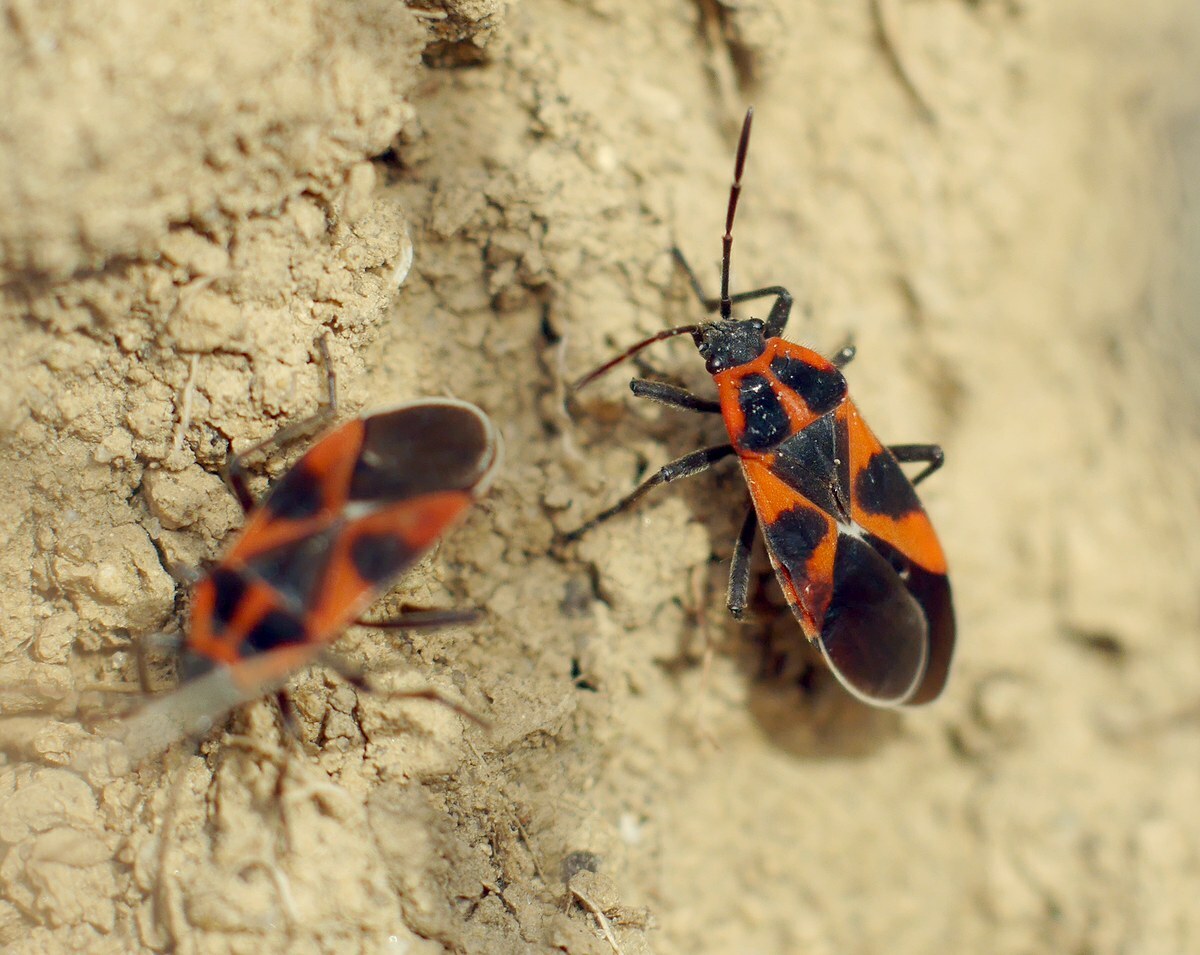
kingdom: Animalia
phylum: Arthropoda
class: Insecta
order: Hemiptera
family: Lygaeidae
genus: Tropidothorax
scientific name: Tropidothorax leucopterus
